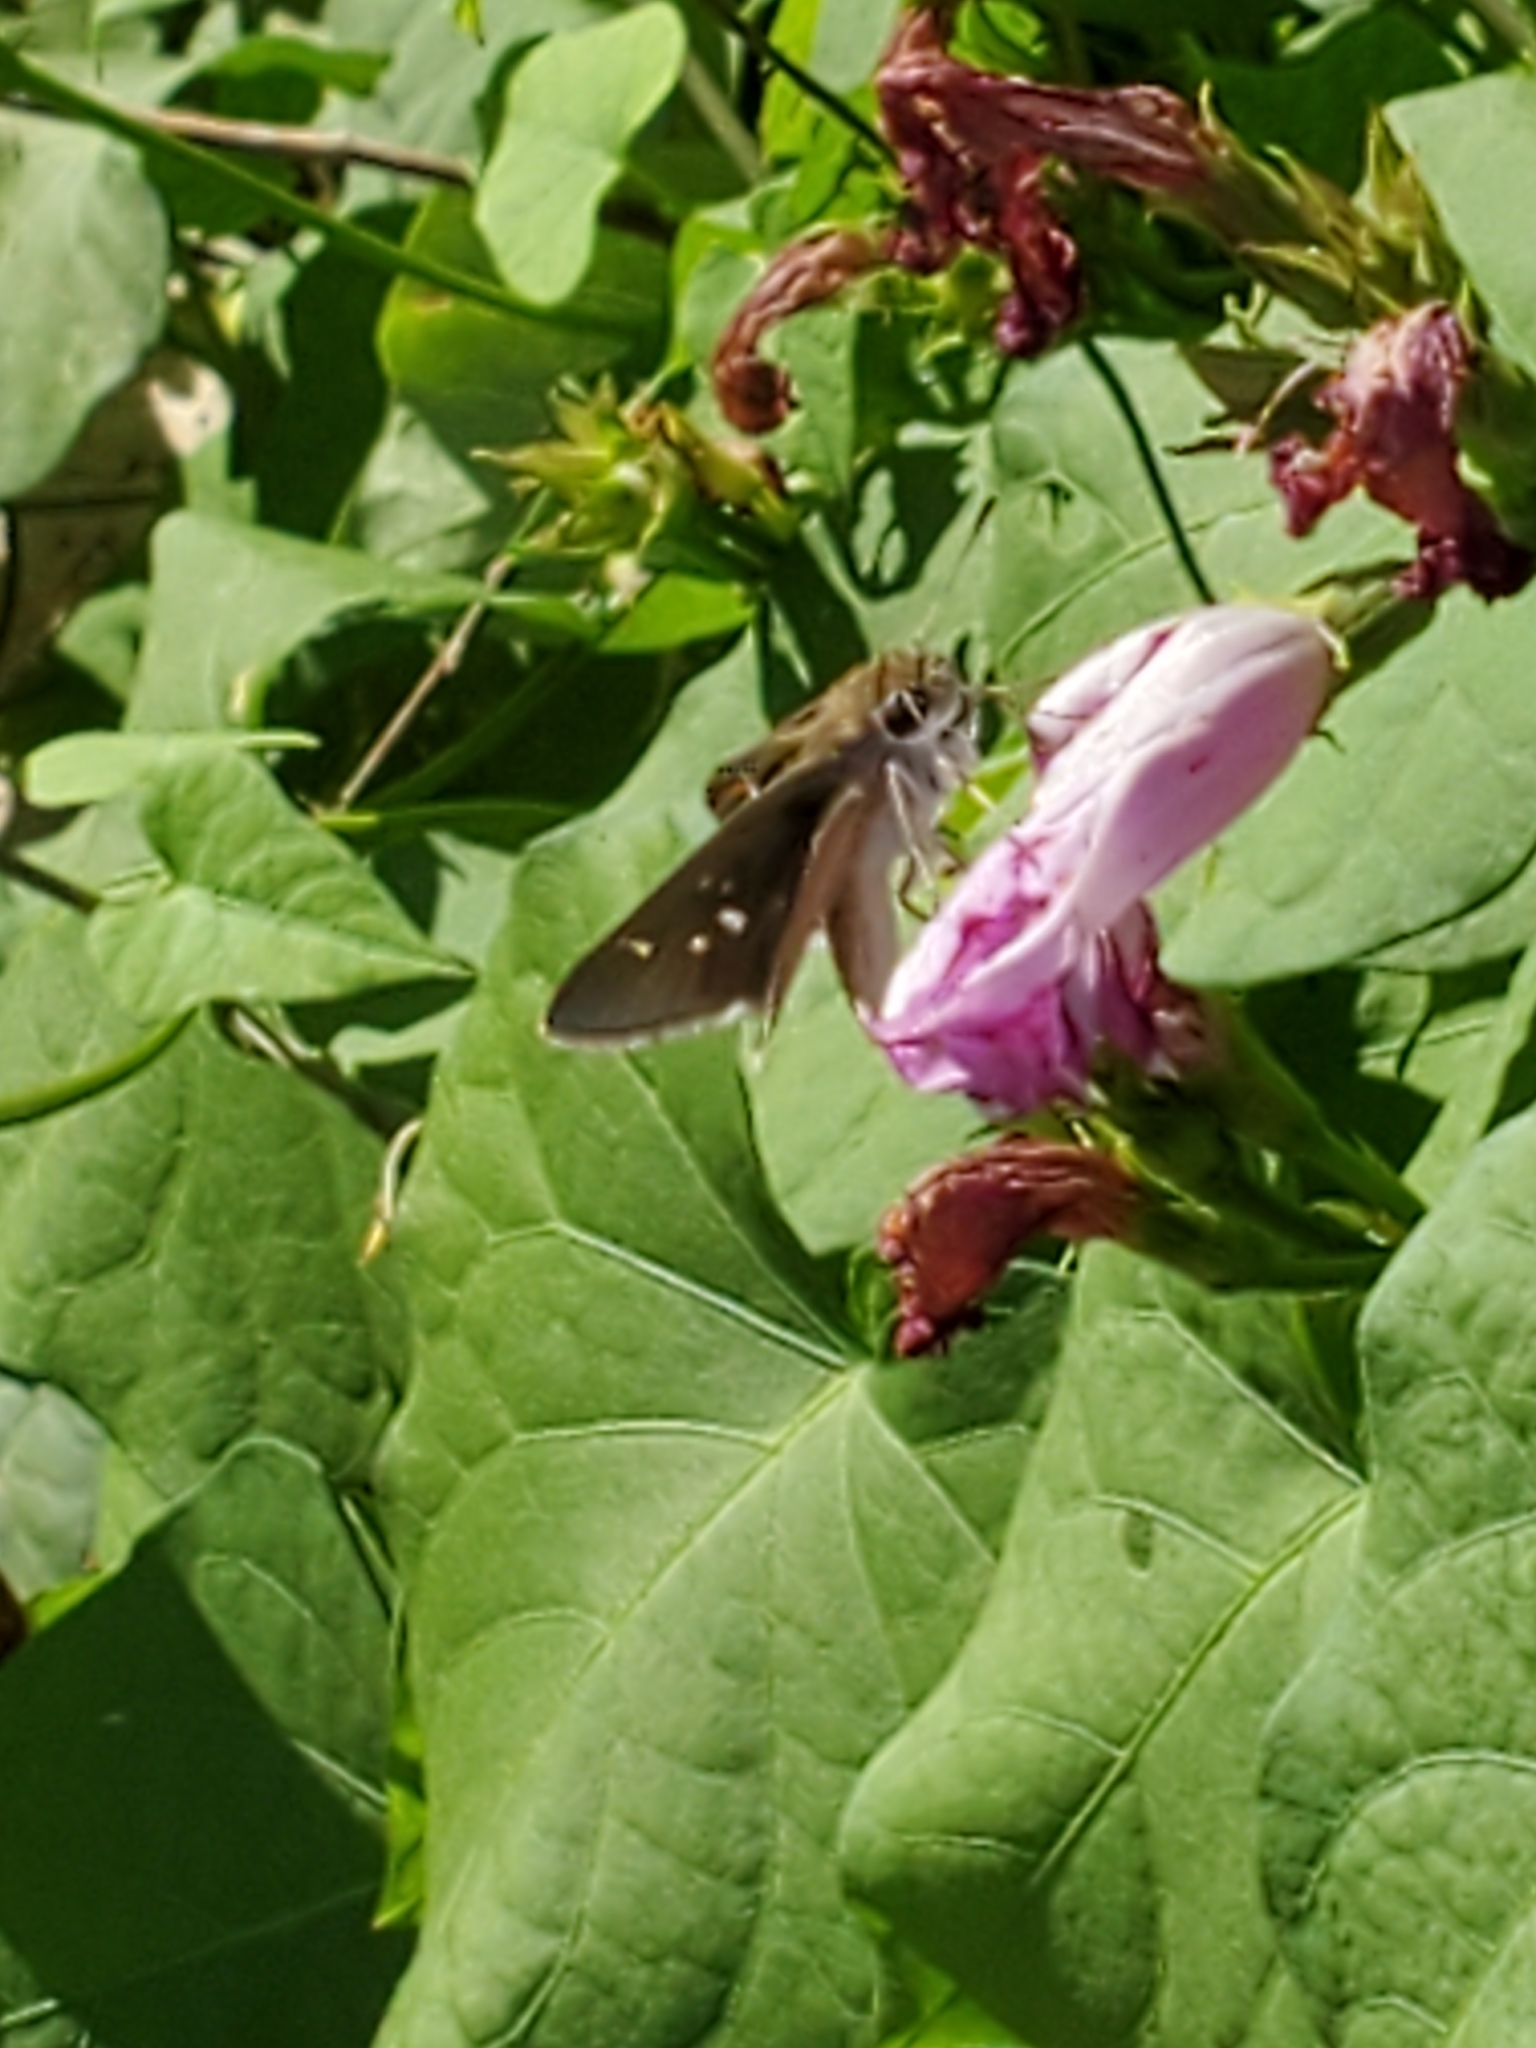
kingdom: Animalia
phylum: Arthropoda
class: Insecta
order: Lepidoptera
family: Hesperiidae
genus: Lerodea
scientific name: Lerodea eufala
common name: Eufala skipper
